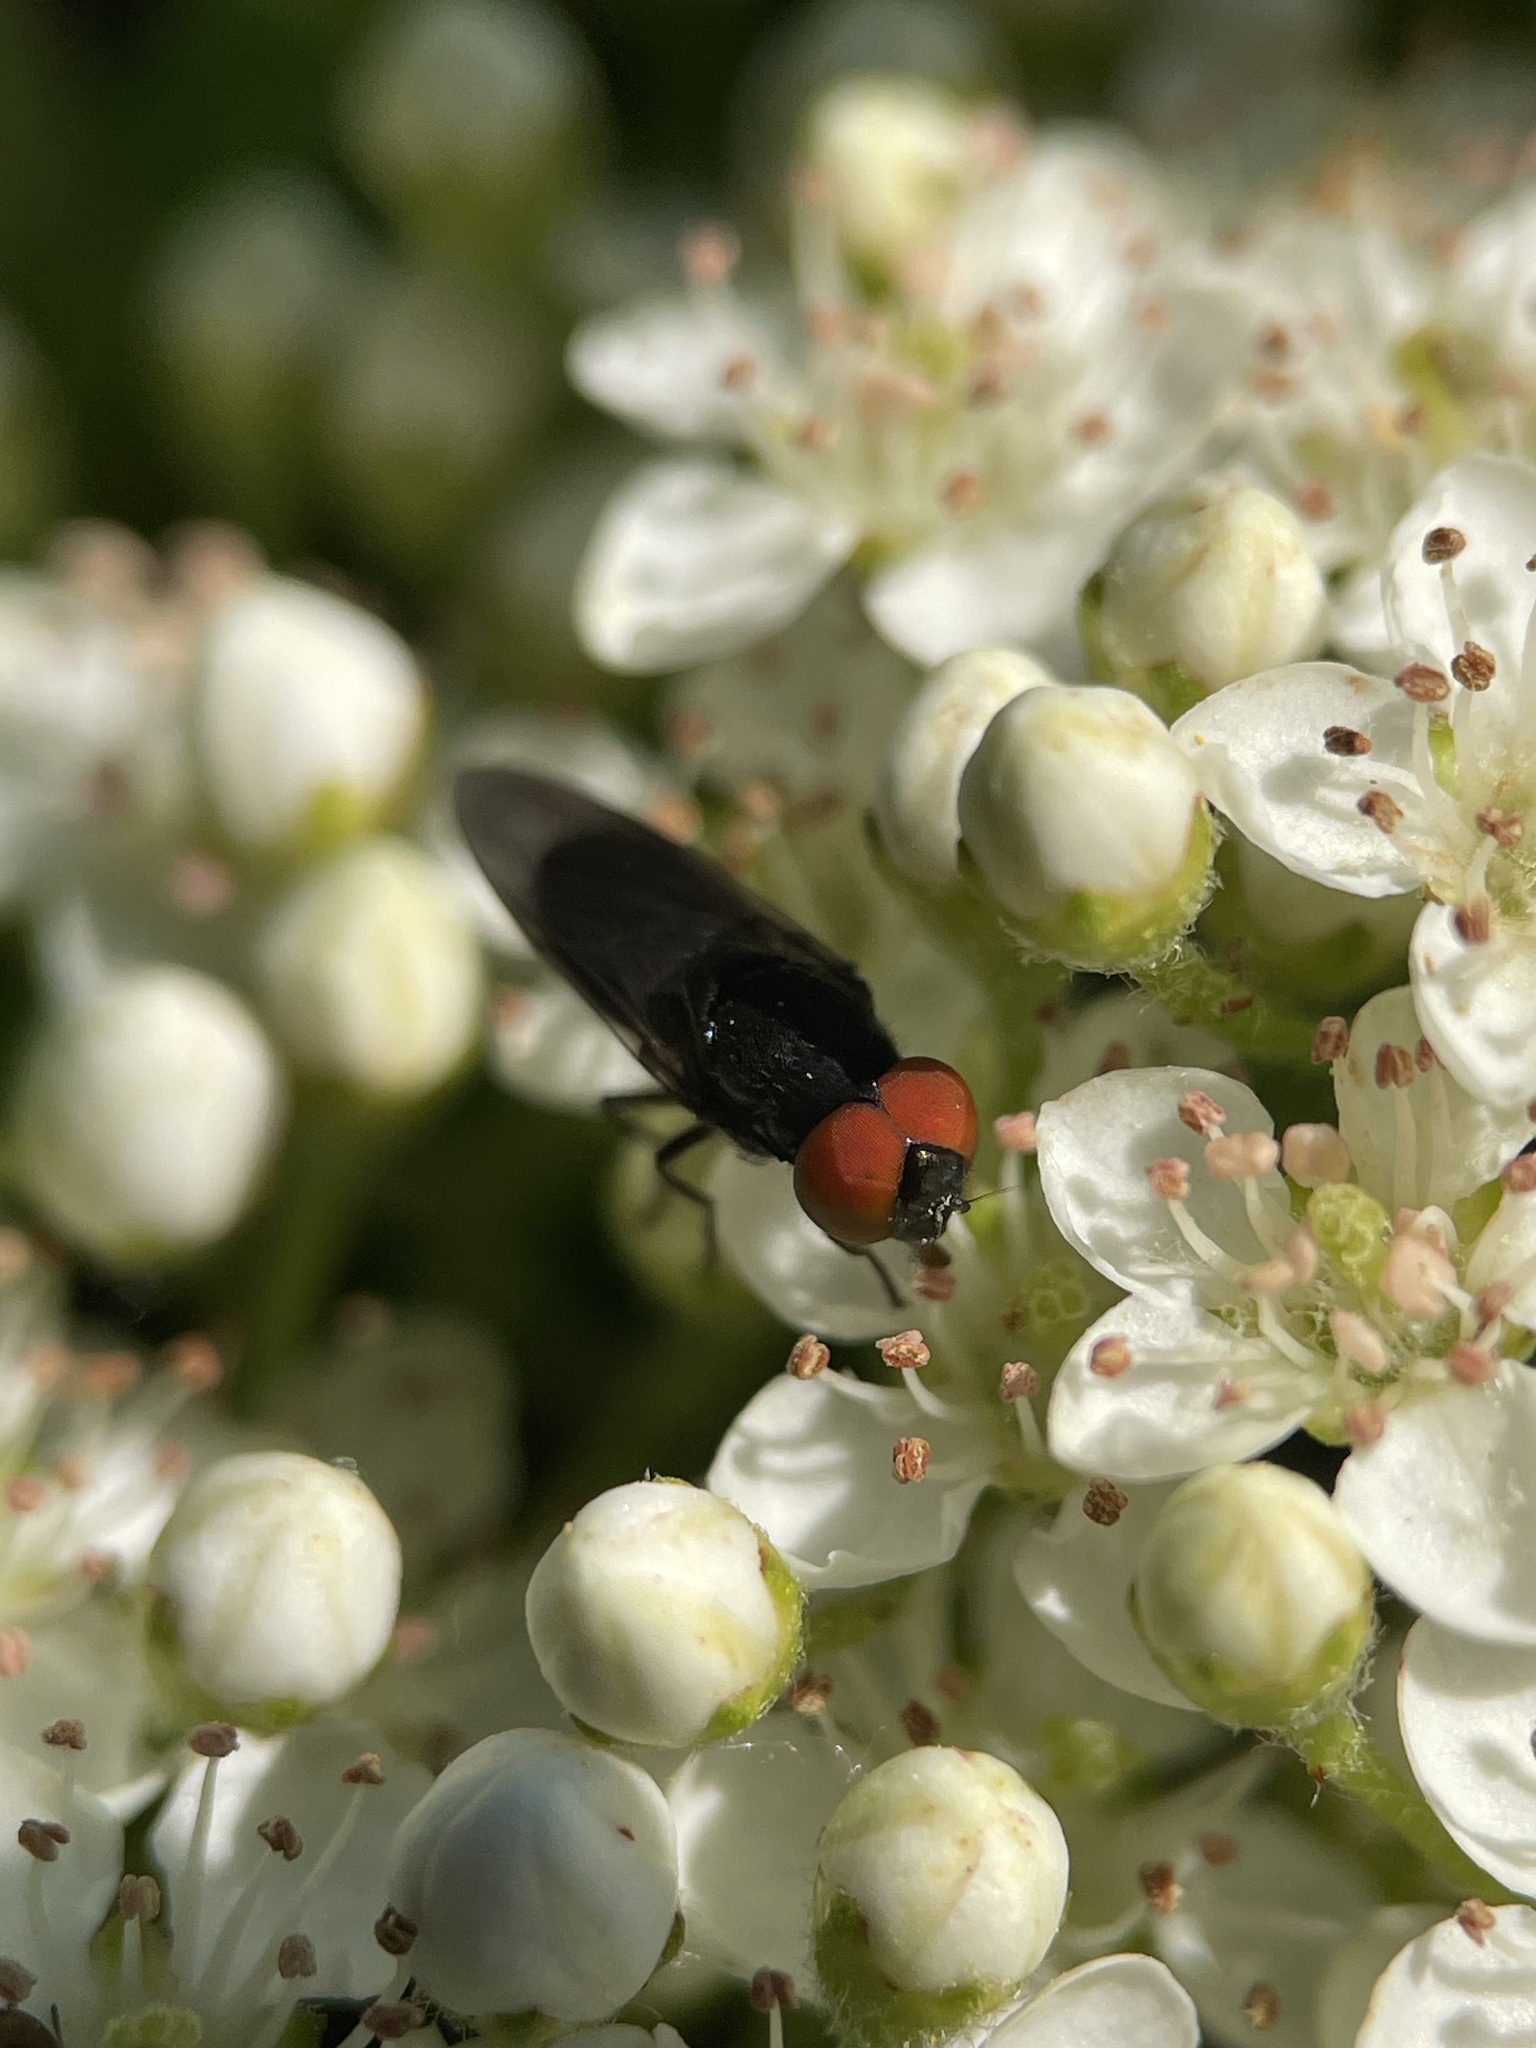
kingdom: Animalia
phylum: Arthropoda
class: Insecta
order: Diptera
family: Syrphidae
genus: Chrysogaster
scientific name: Chrysogaster solstitialis
